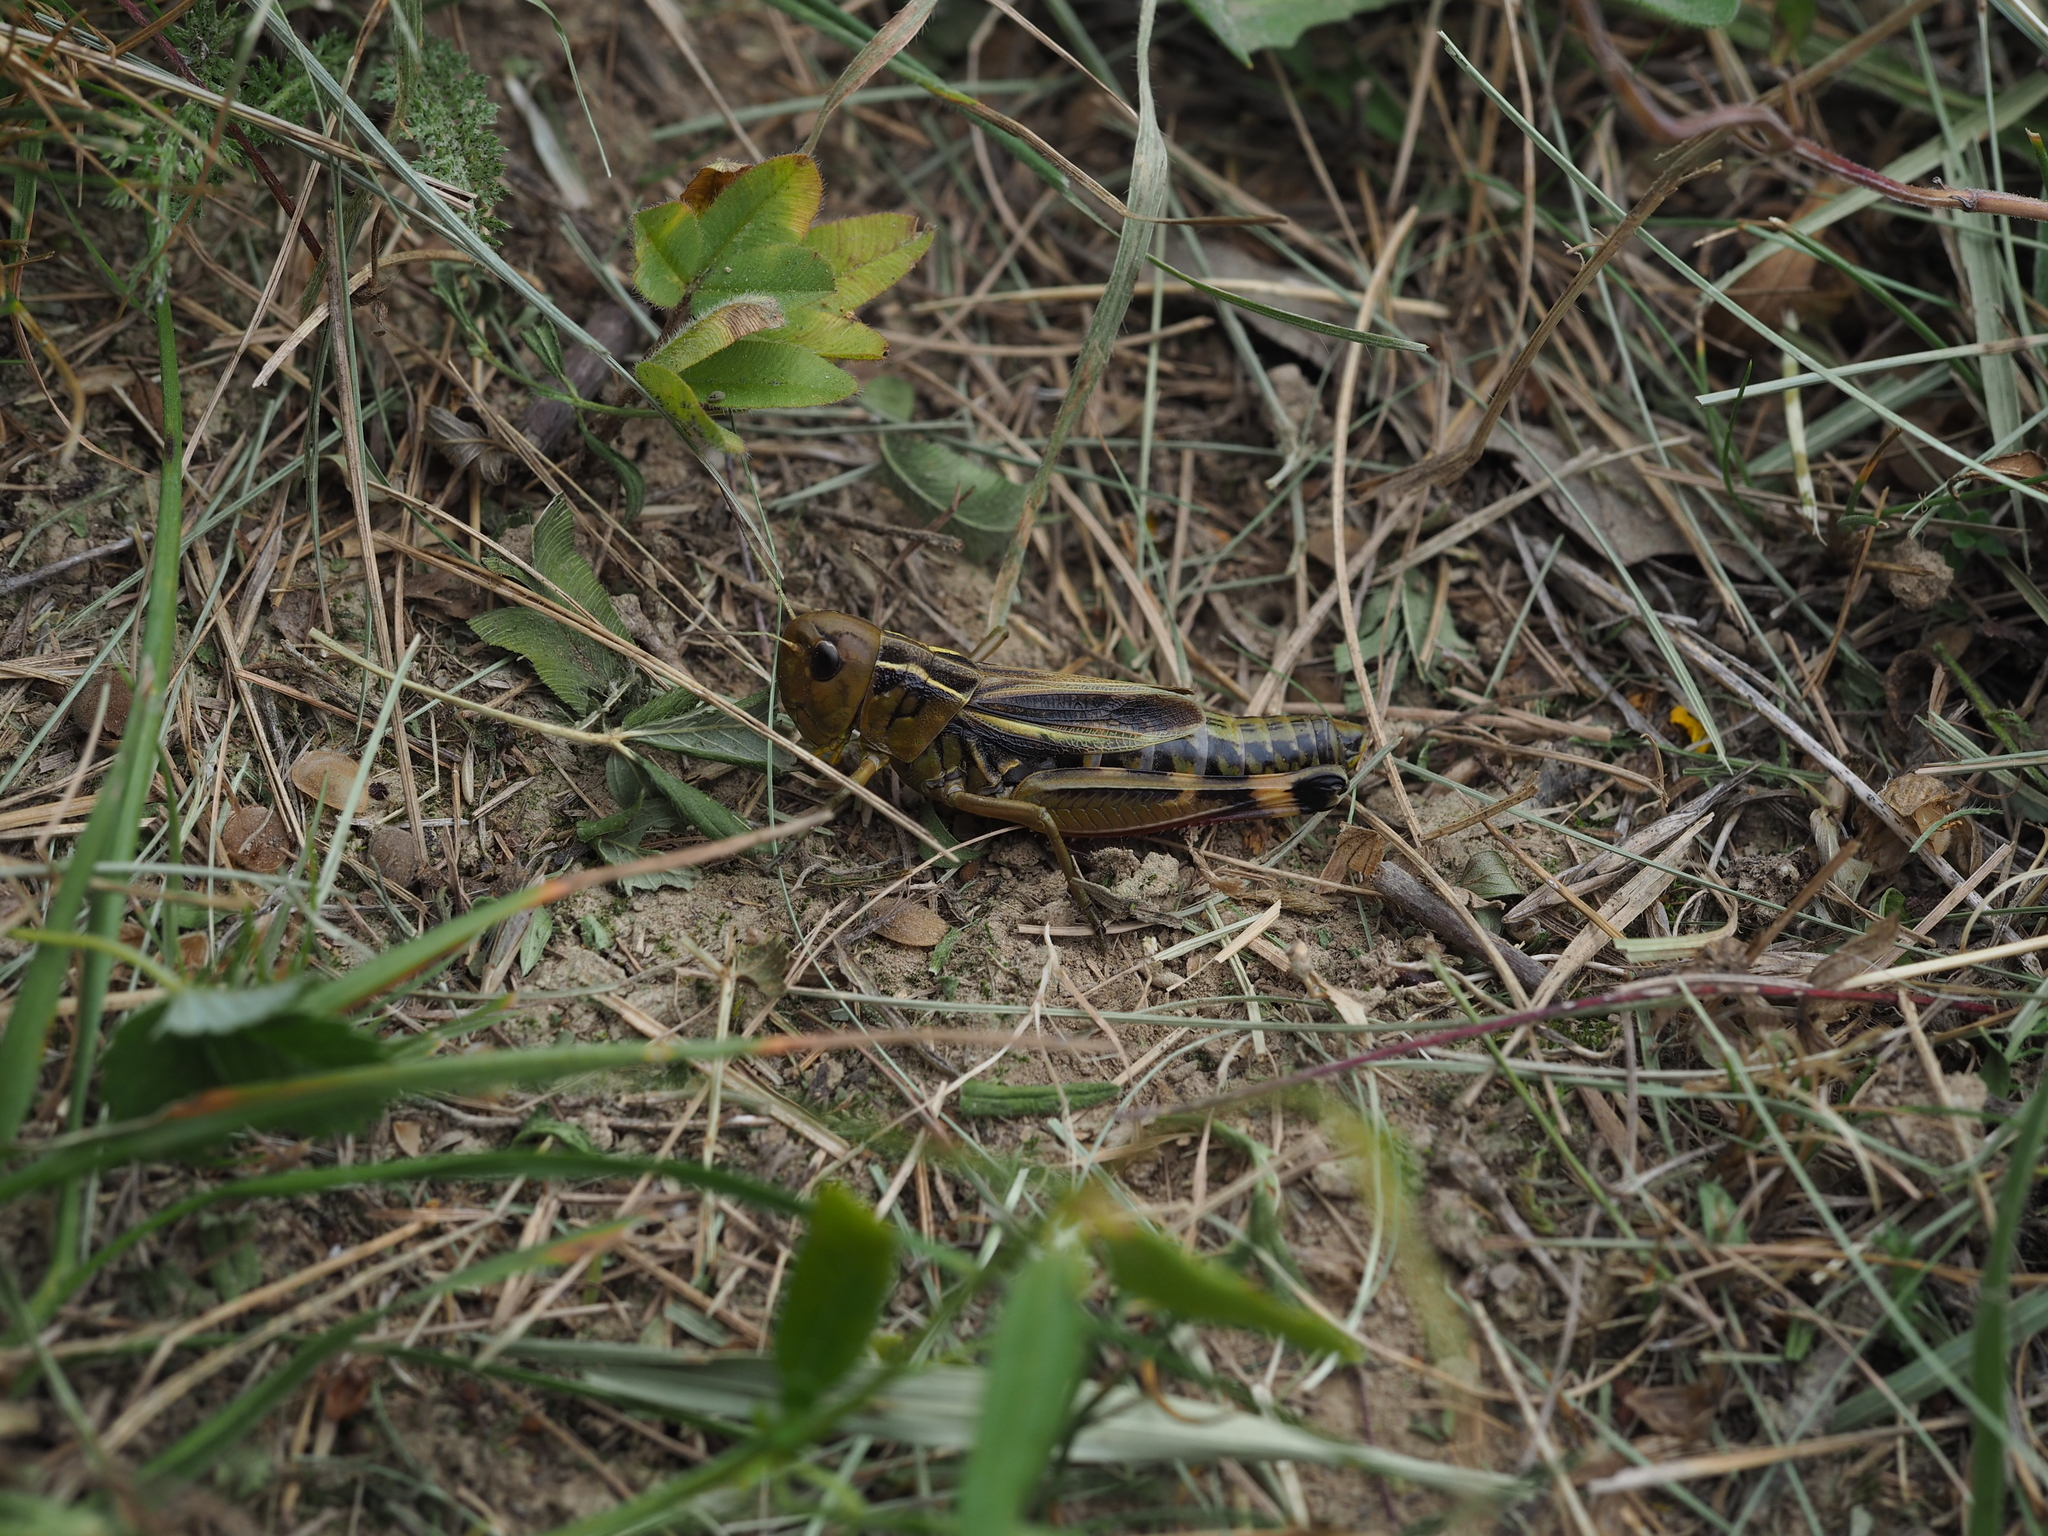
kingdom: Animalia
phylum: Arthropoda
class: Insecta
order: Orthoptera
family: Acrididae
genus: Arcyptera
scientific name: Arcyptera fusca
